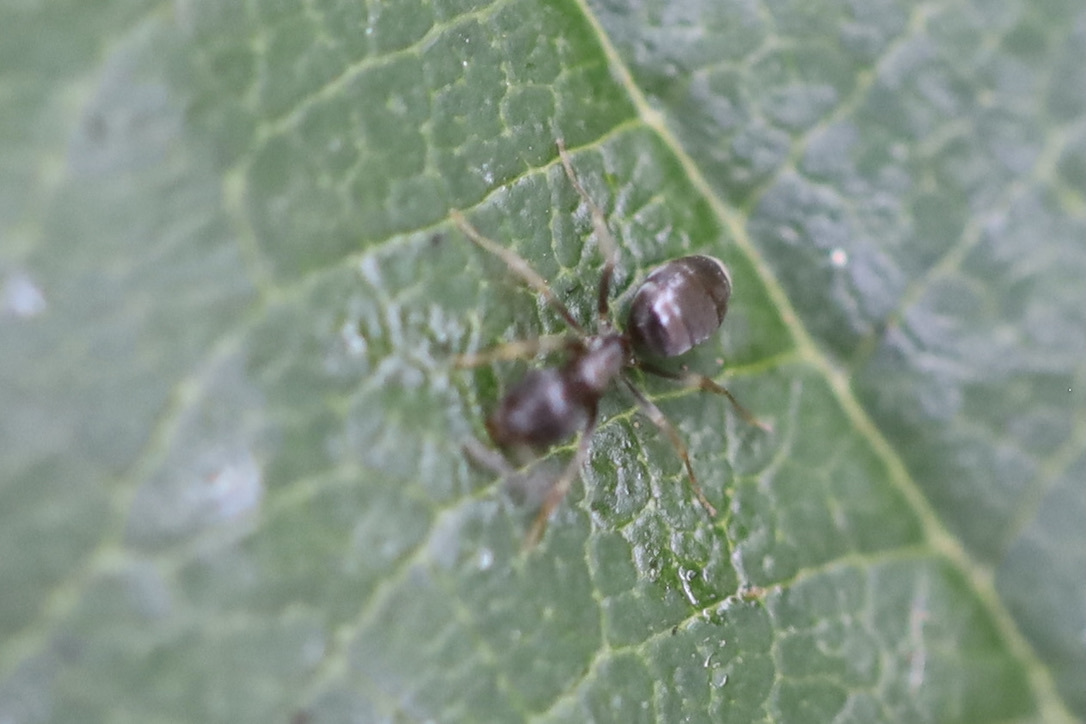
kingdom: Animalia
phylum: Arthropoda
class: Insecta
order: Hymenoptera
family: Formicidae
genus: Tapinoma
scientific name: Tapinoma sessile
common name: Odorous house ant
